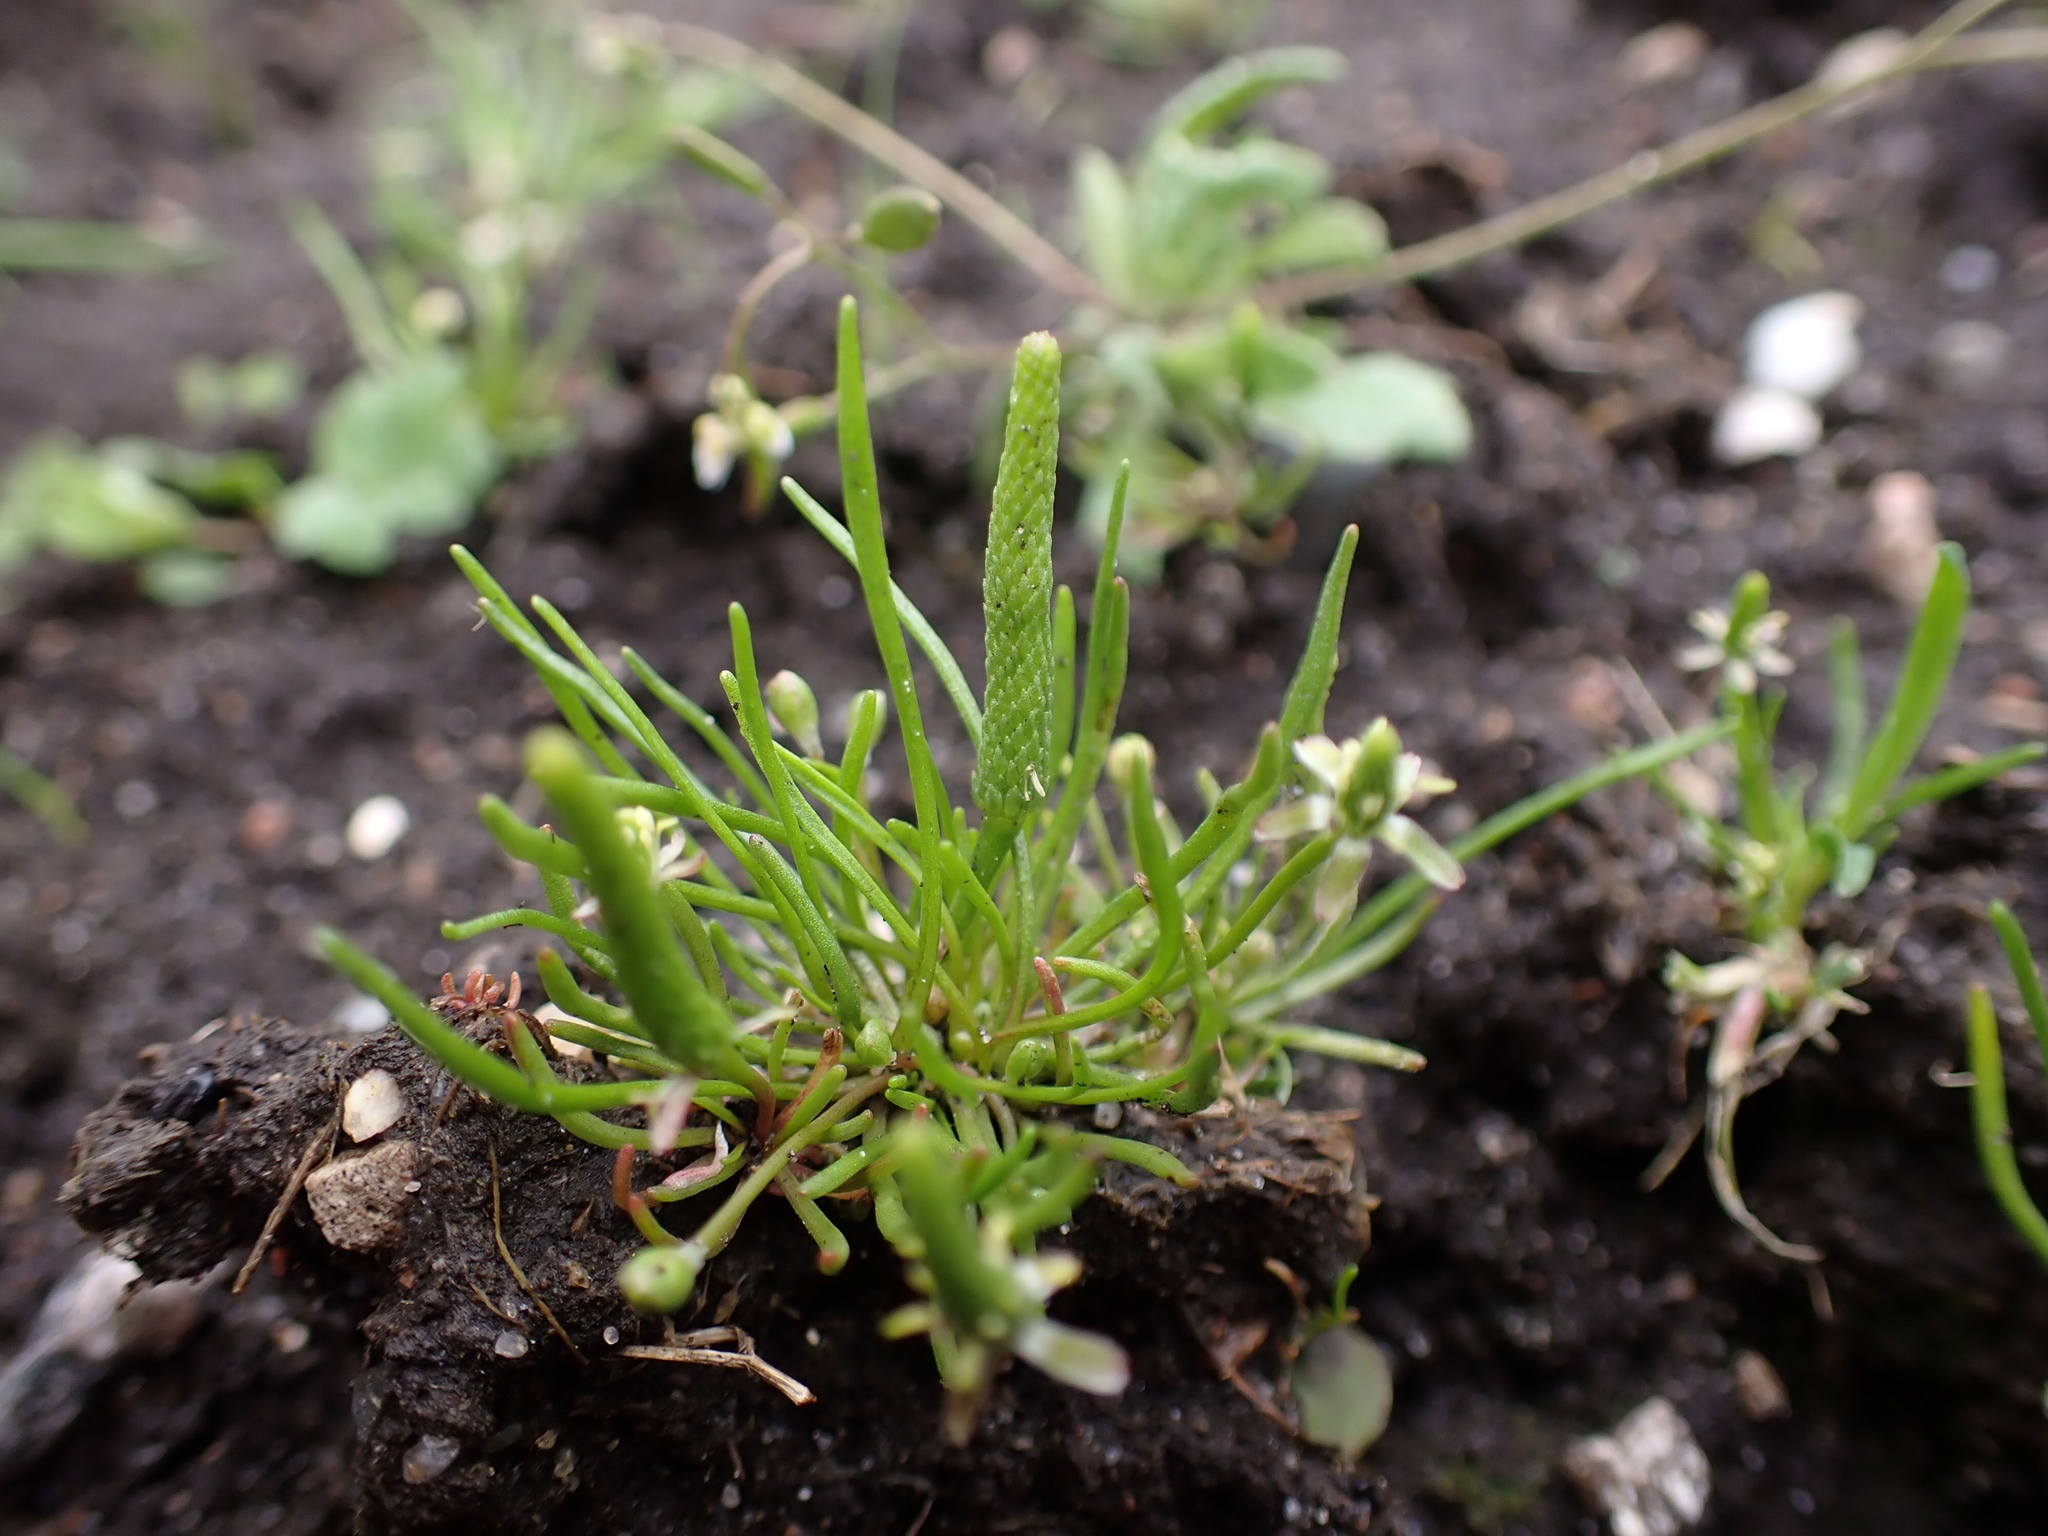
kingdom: Plantae
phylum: Tracheophyta
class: Magnoliopsida
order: Ranunculales
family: Ranunculaceae
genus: Myosurus
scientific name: Myosurus minimus
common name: Mousetail
